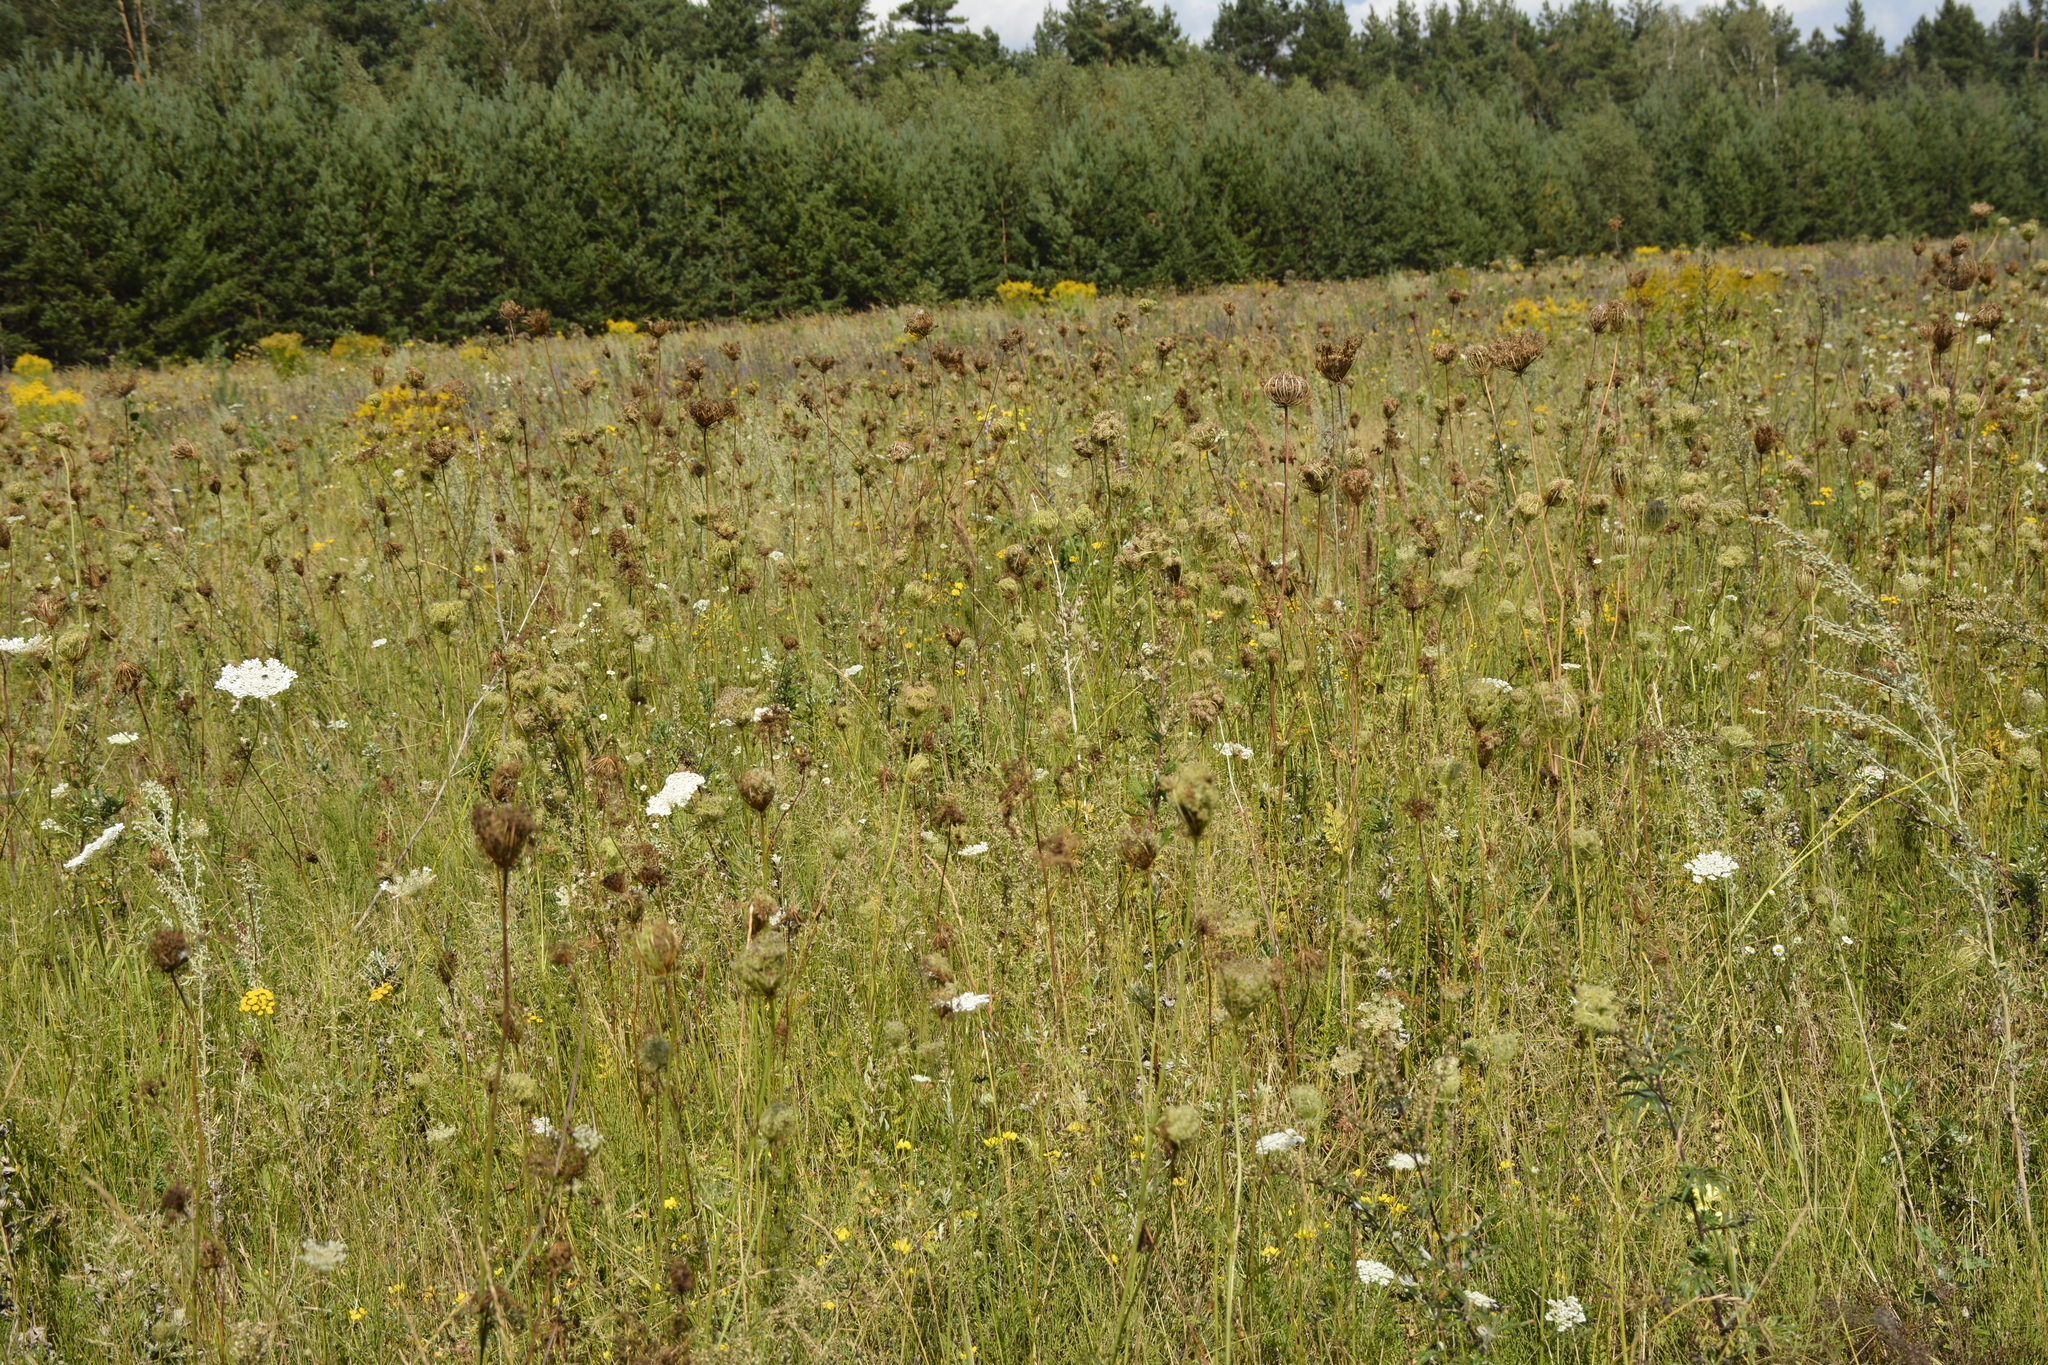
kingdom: Plantae
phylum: Tracheophyta
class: Magnoliopsida
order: Apiales
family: Apiaceae
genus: Daucus
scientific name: Daucus carota
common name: Wild carrot
